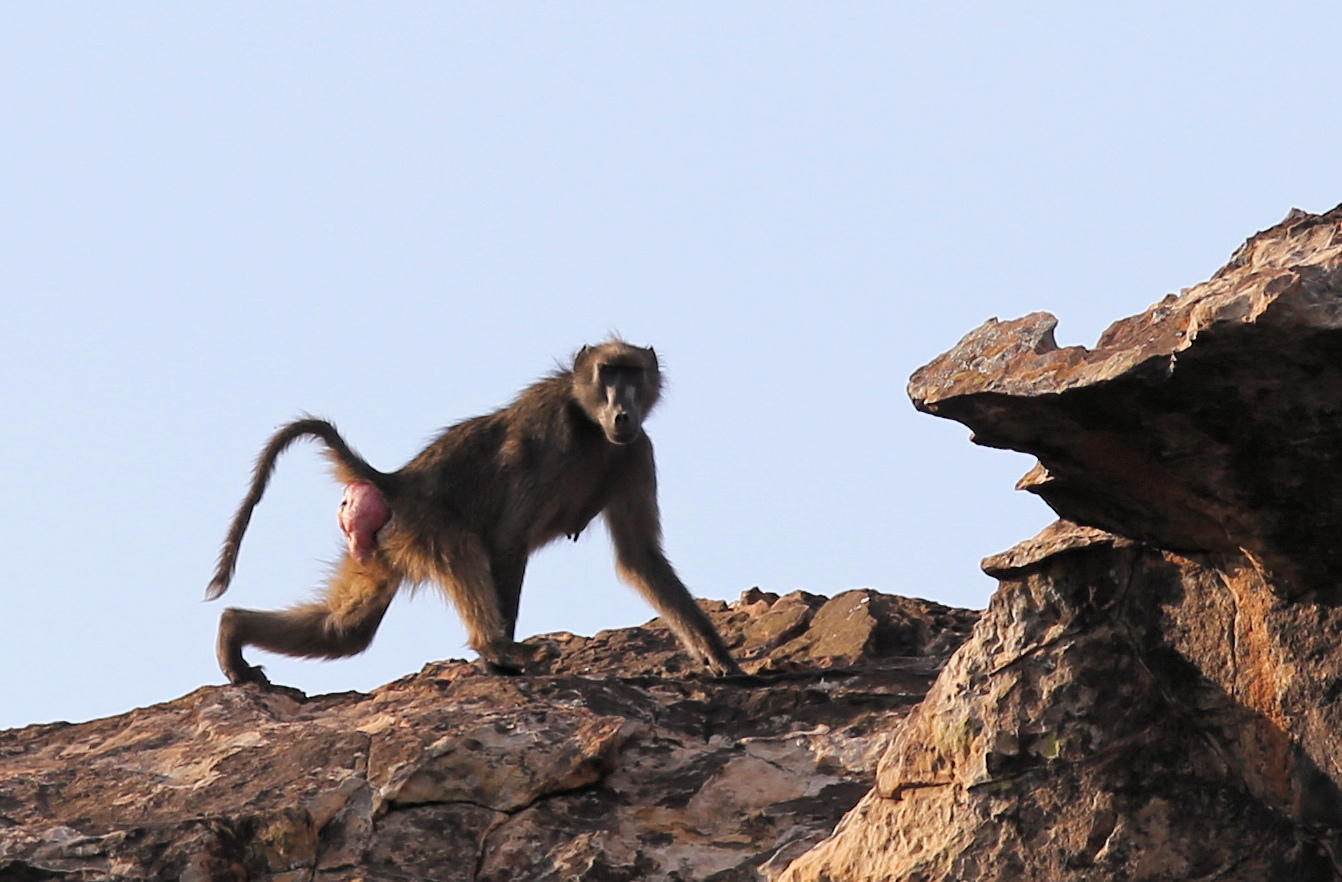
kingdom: Animalia
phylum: Chordata
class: Mammalia
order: Primates
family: Cercopithecidae
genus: Papio
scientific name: Papio ursinus
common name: Chacma baboon
